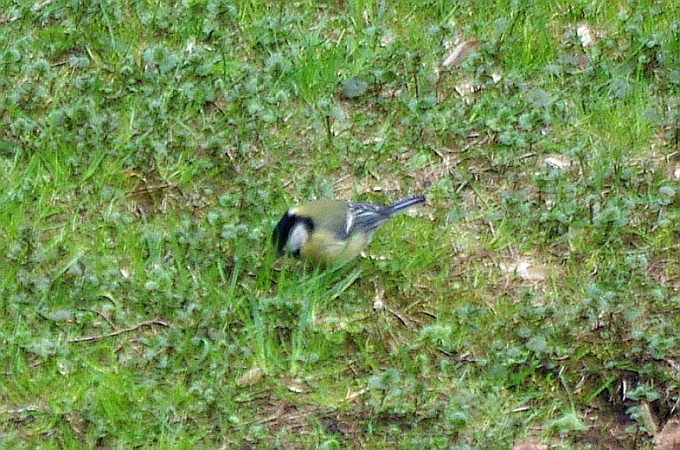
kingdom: Animalia
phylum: Chordata
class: Aves
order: Passeriformes
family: Paridae
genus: Parus
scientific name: Parus major
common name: Great tit
